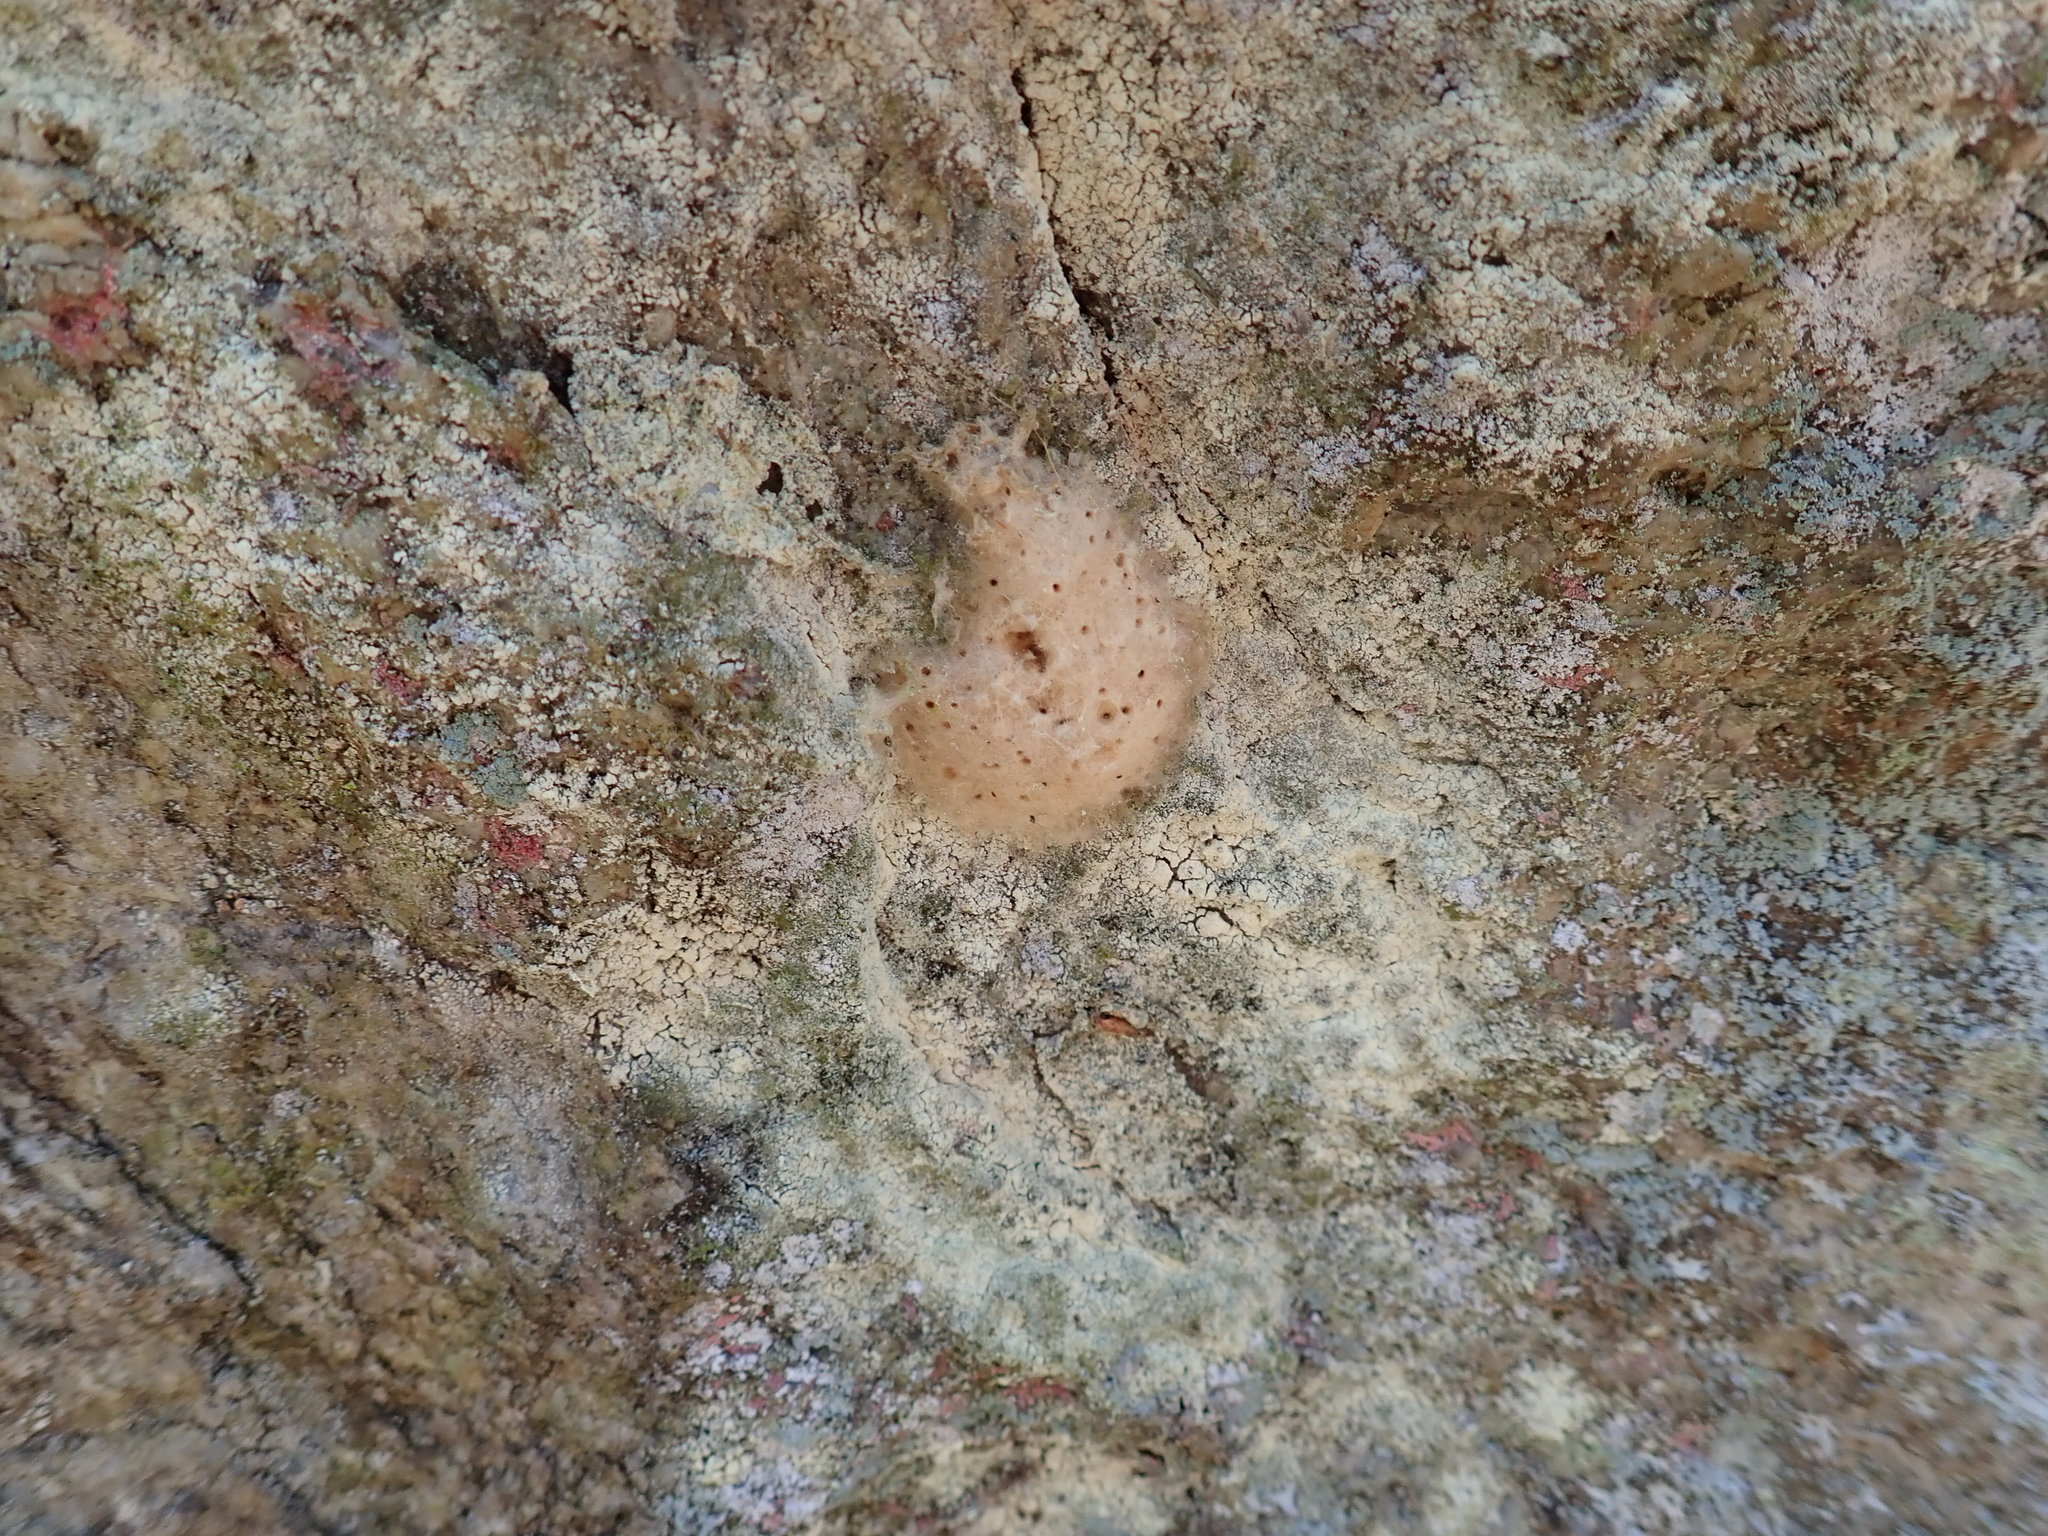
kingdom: Animalia
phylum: Arthropoda
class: Insecta
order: Lepidoptera
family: Erebidae
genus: Lymantria
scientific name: Lymantria dispar
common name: Gypsy moth
